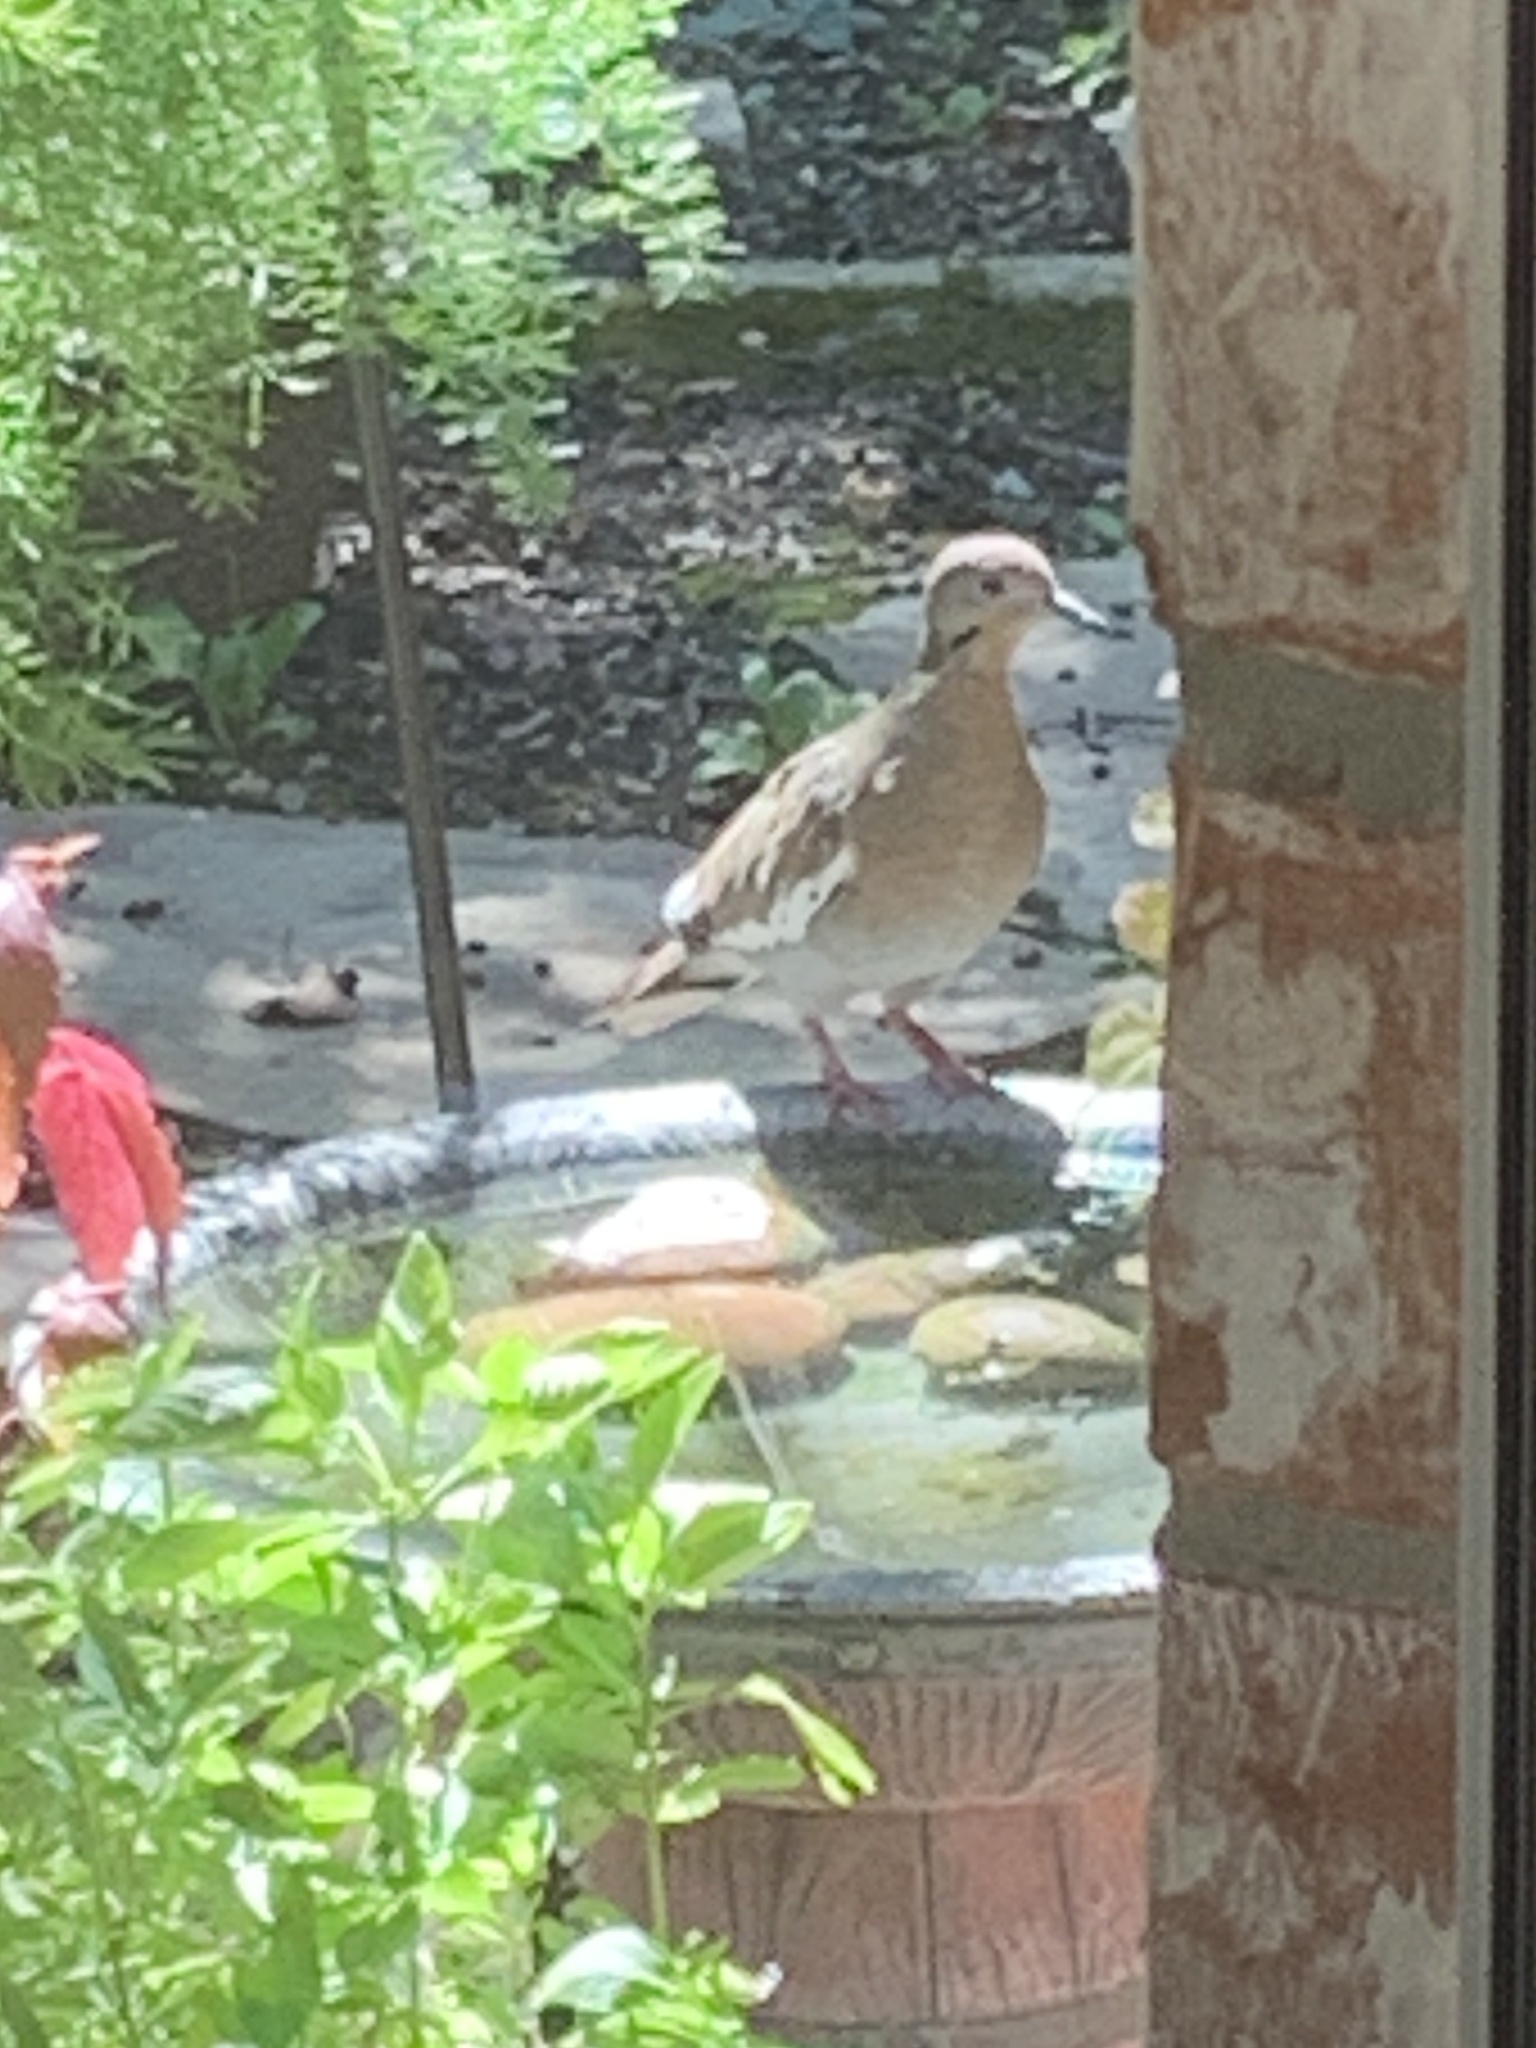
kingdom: Animalia
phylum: Chordata
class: Aves
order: Columbiformes
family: Columbidae
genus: Zenaida
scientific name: Zenaida asiatica
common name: White-winged dove
